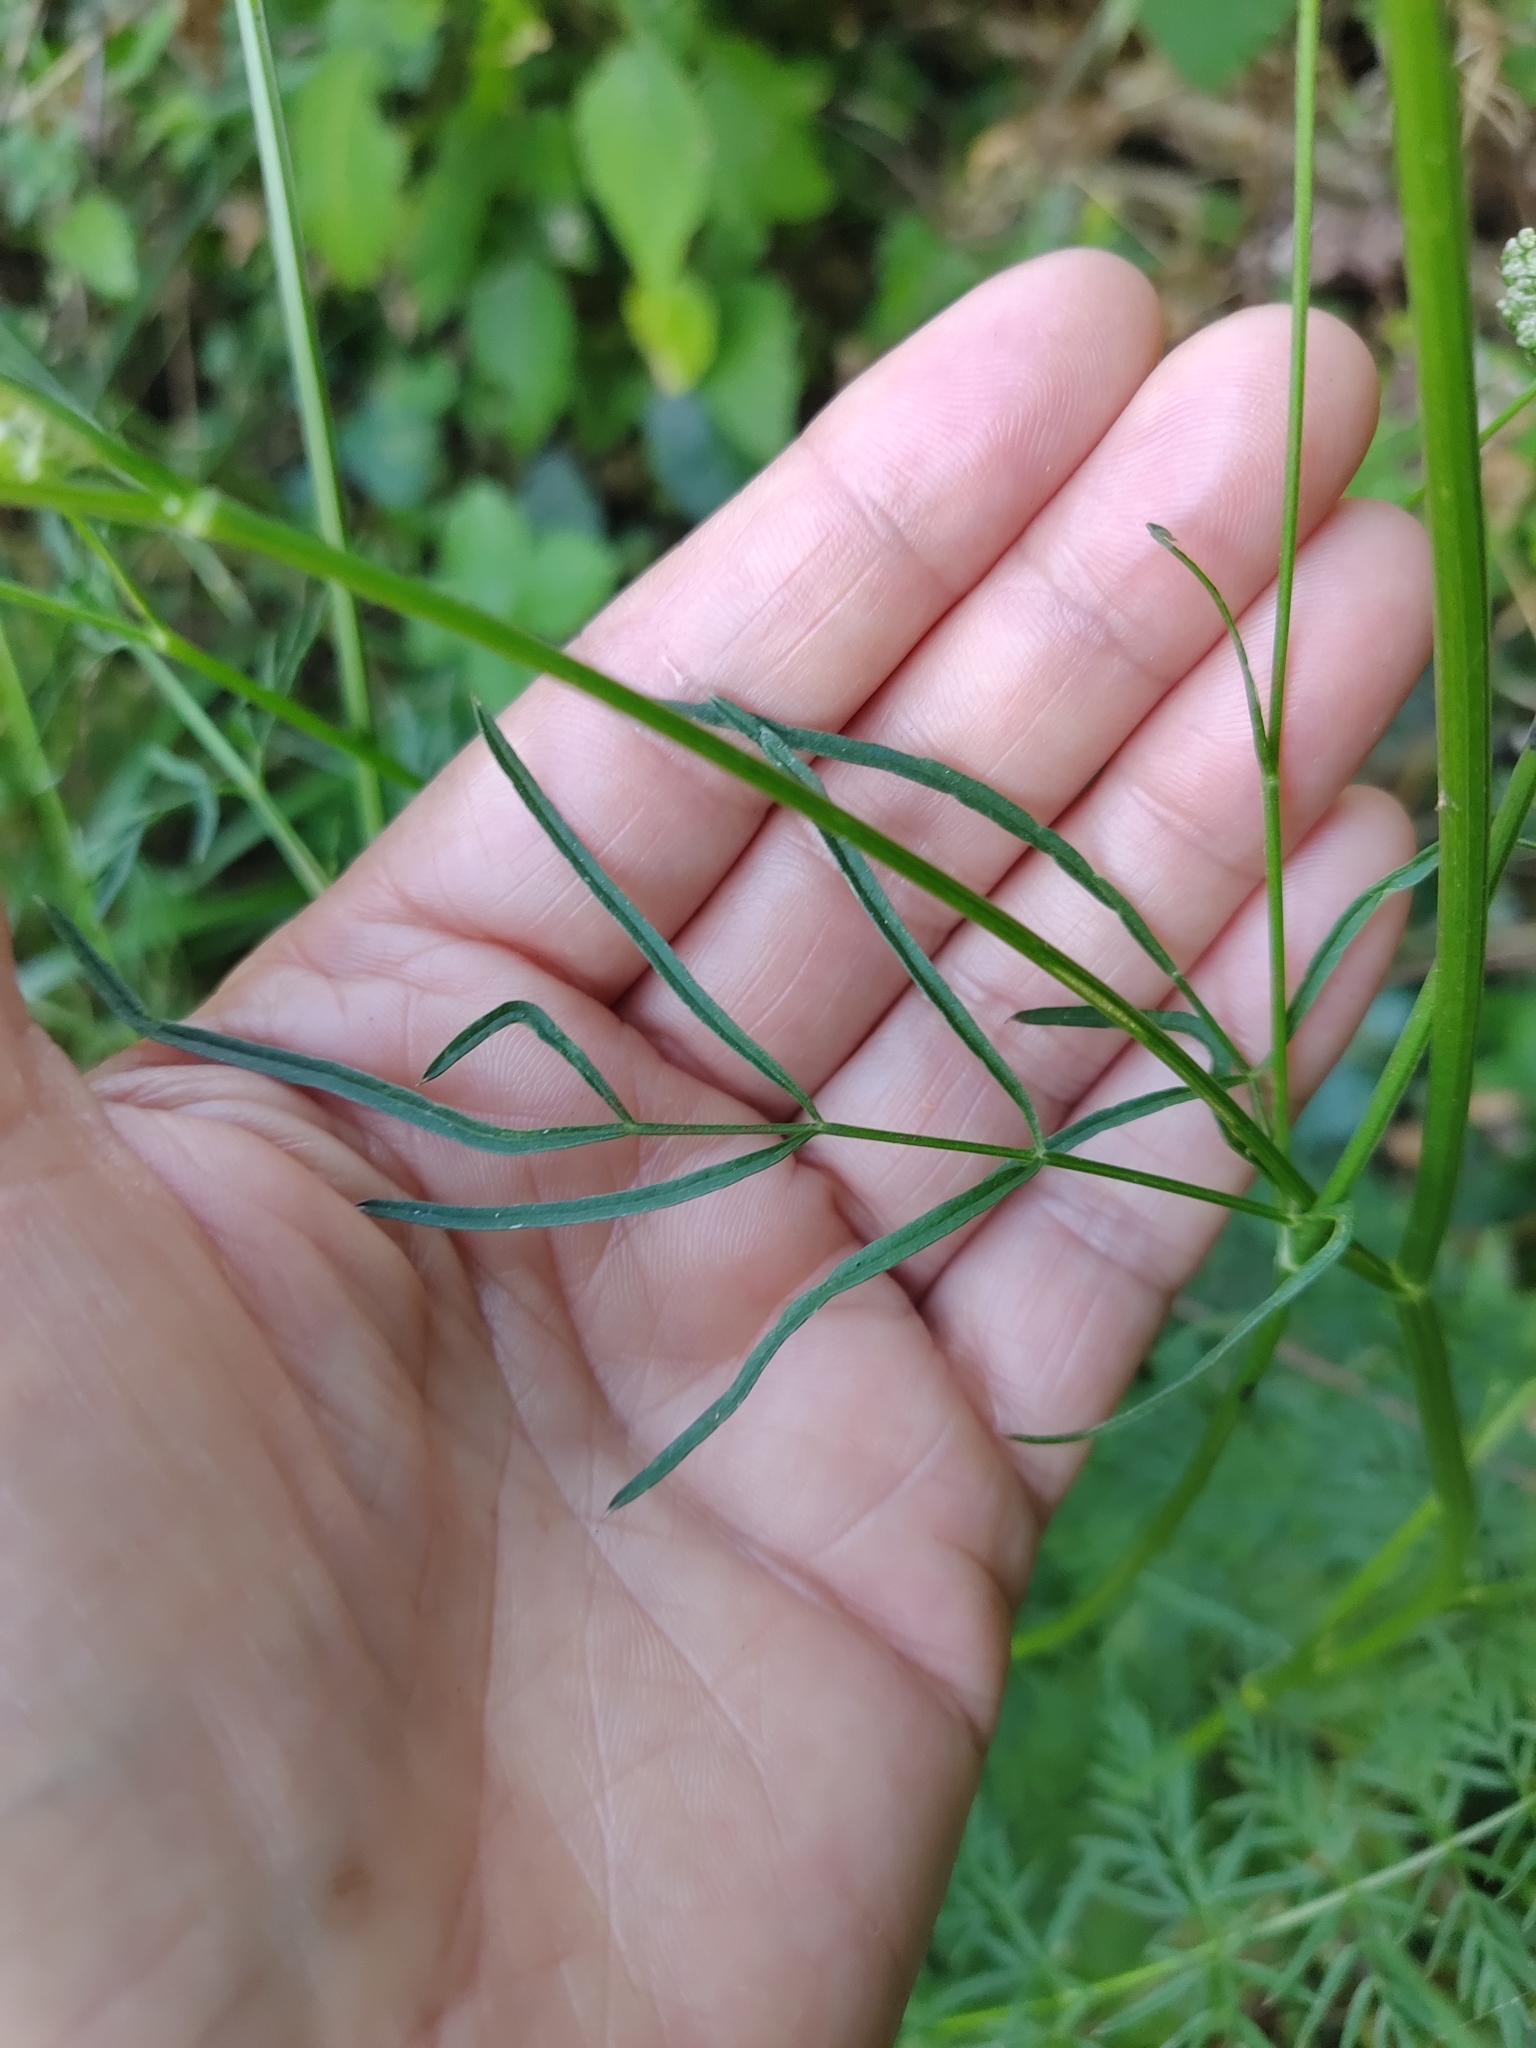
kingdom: Plantae
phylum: Tracheophyta
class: Magnoliopsida
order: Apiales
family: Apiaceae
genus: Selinum
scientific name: Selinum broteroi
